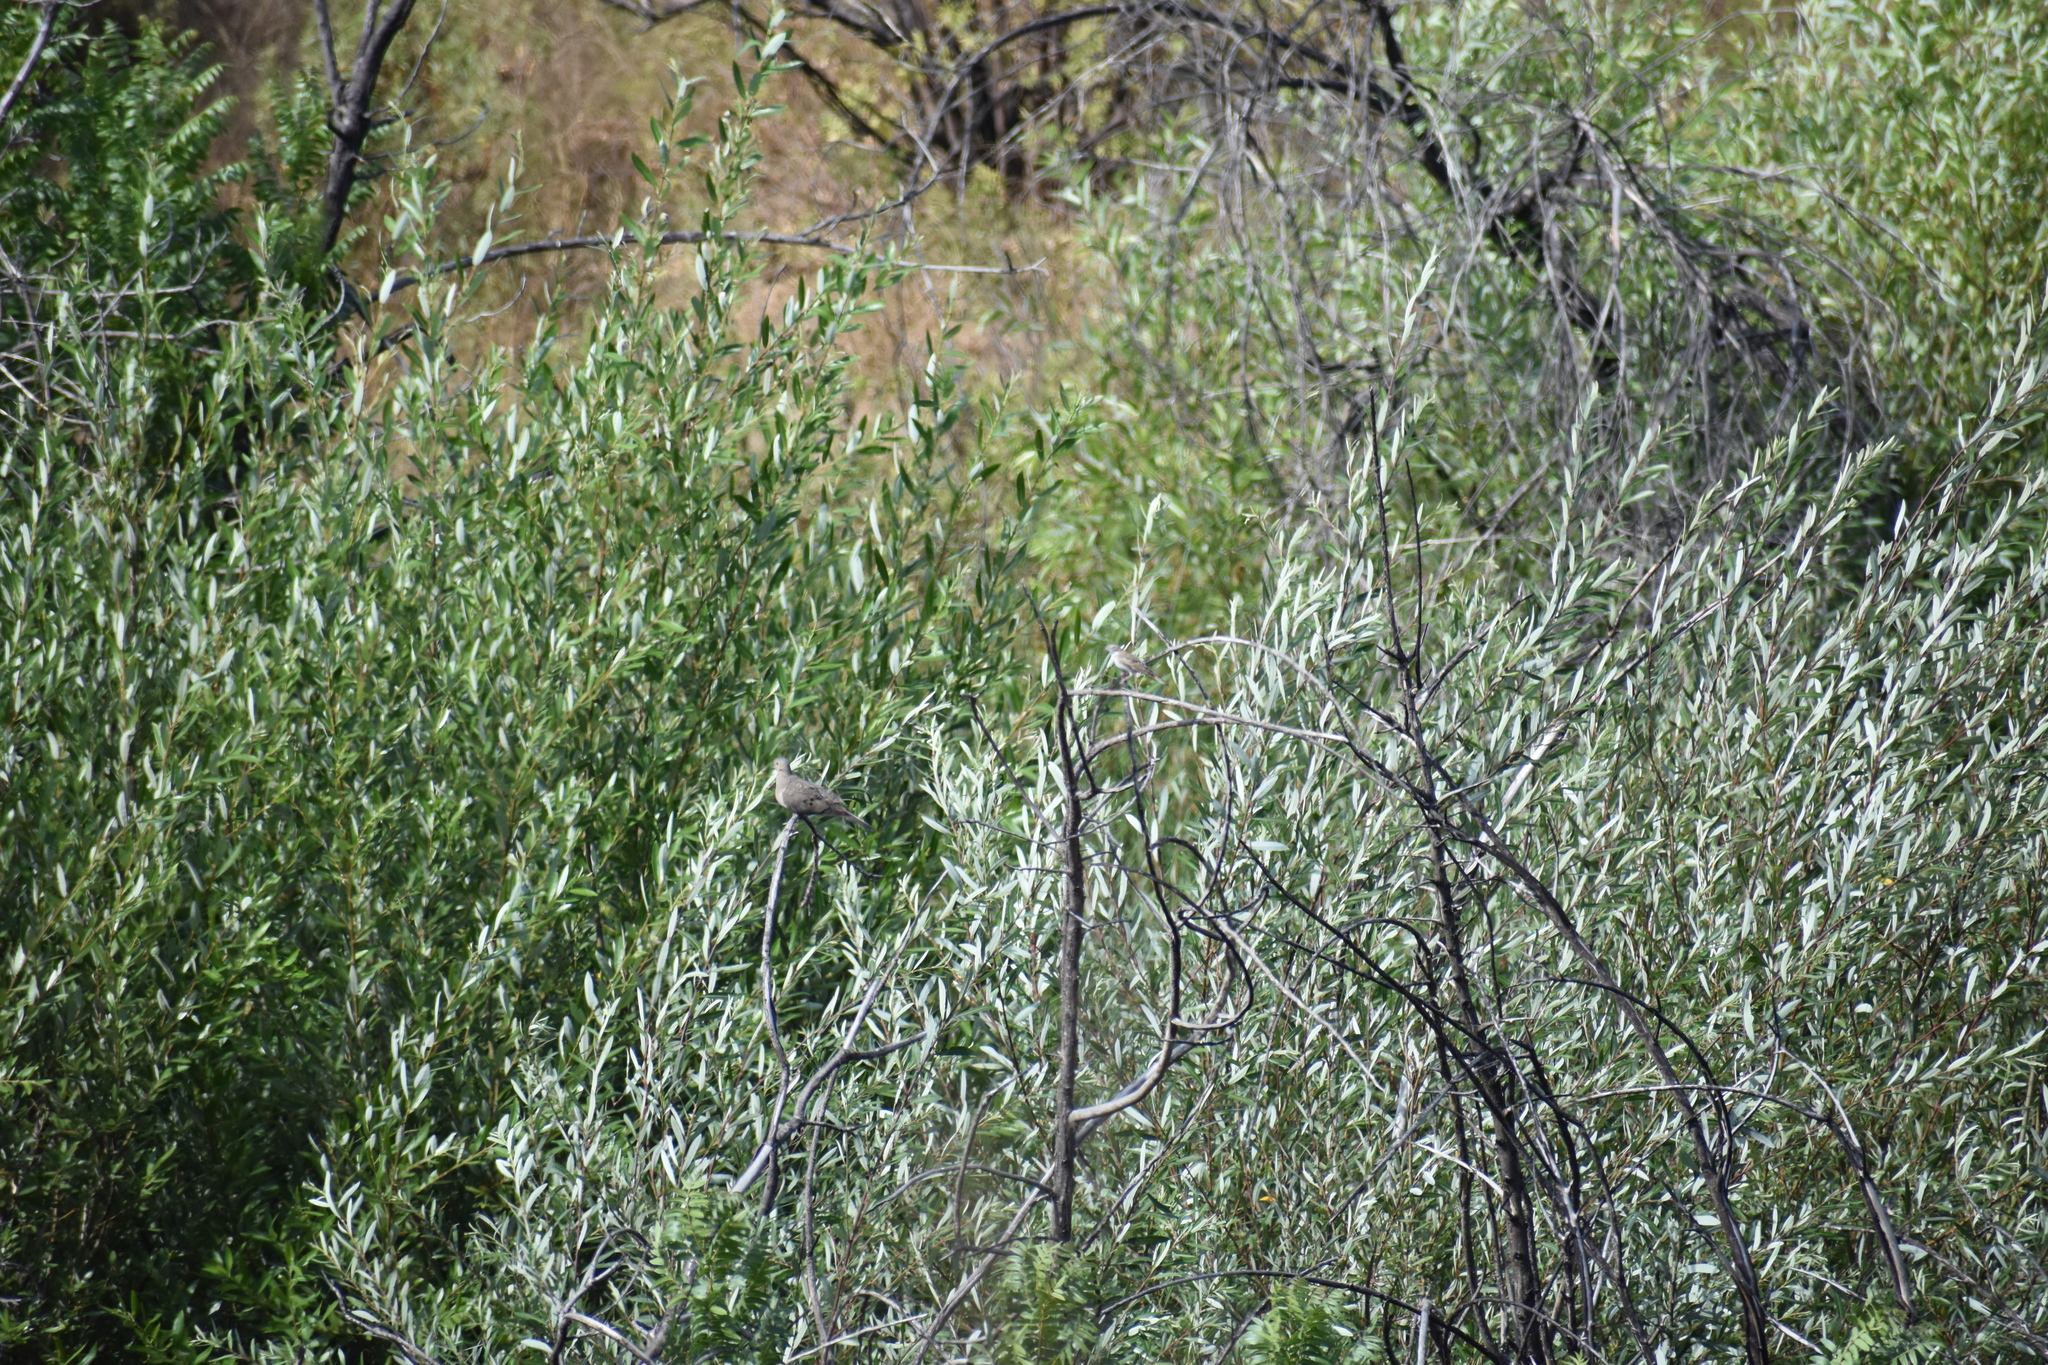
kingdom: Animalia
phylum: Chordata
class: Aves
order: Passeriformes
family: Passerellidae
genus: Chondestes
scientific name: Chondestes grammacus
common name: Lark sparrow
